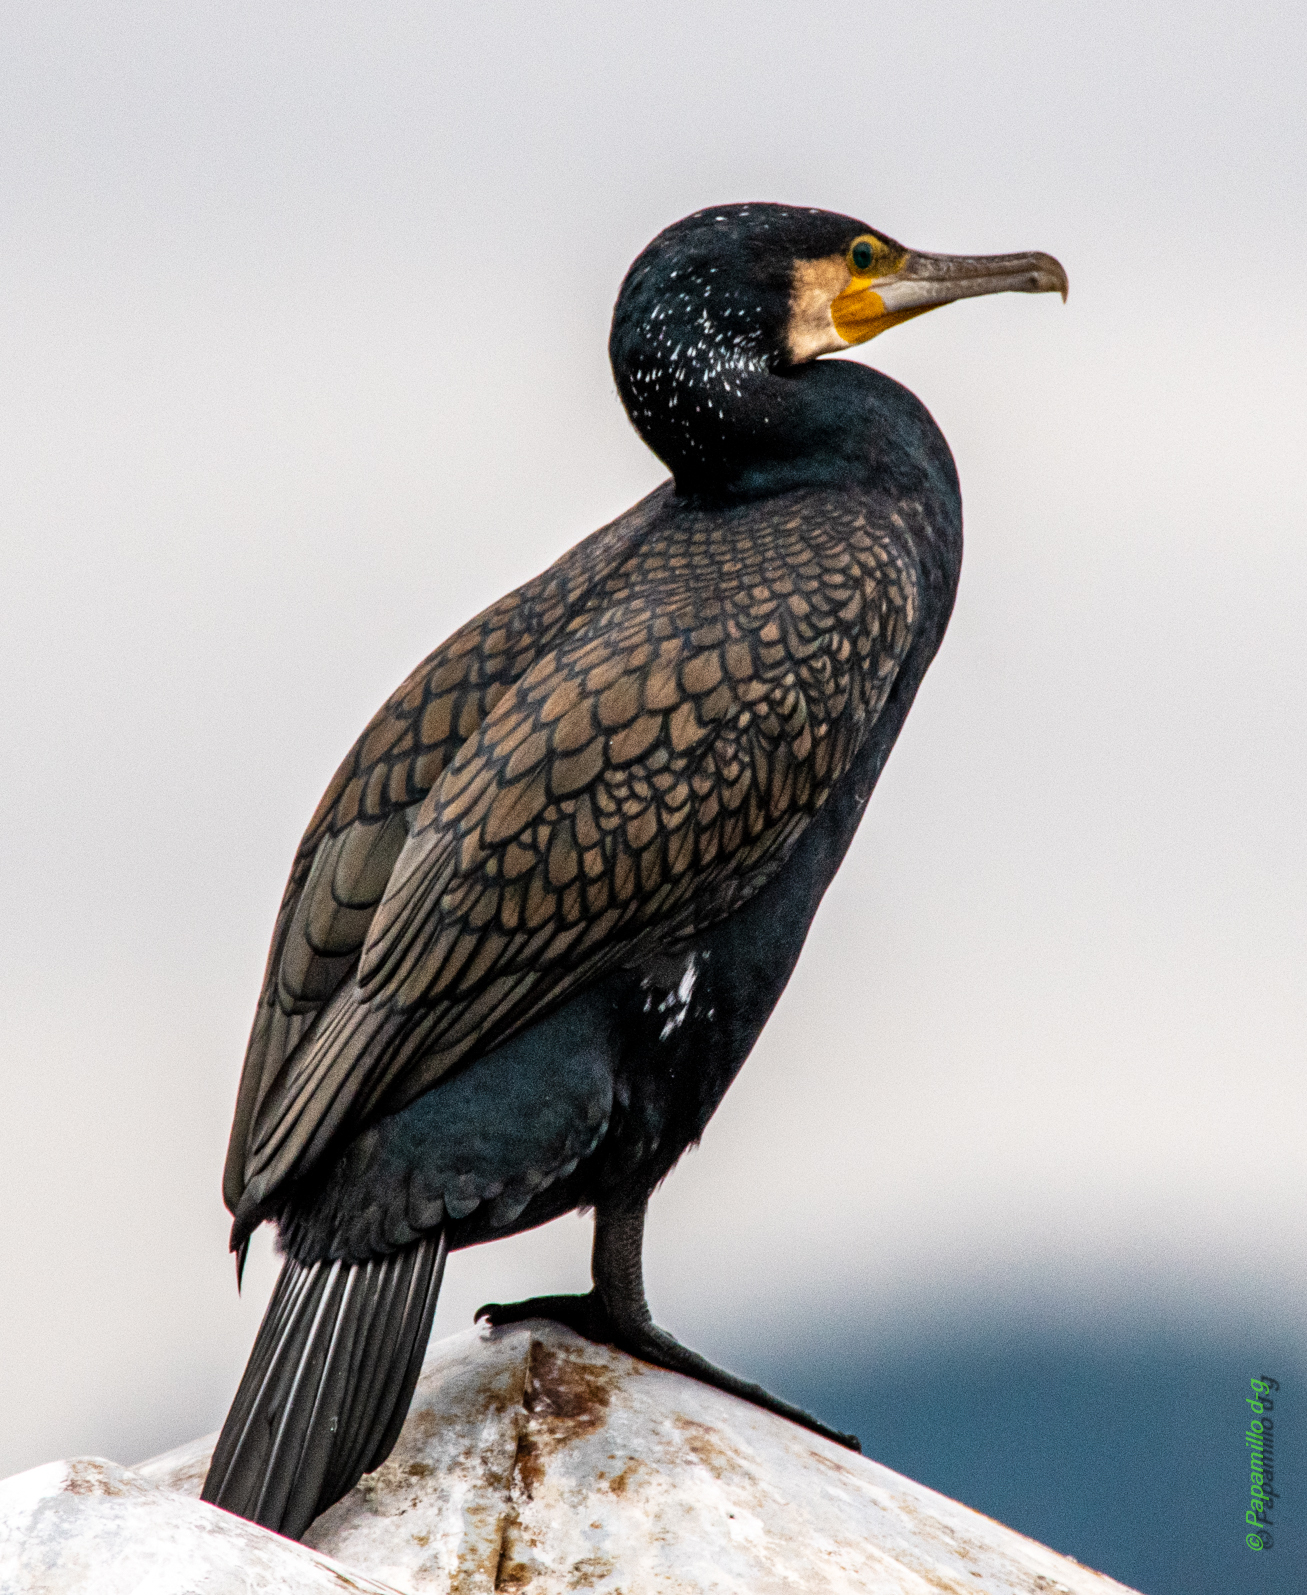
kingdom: Animalia
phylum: Chordata
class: Aves
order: Suliformes
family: Phalacrocoracidae
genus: Phalacrocorax
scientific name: Phalacrocorax carbo
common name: Great cormorant
